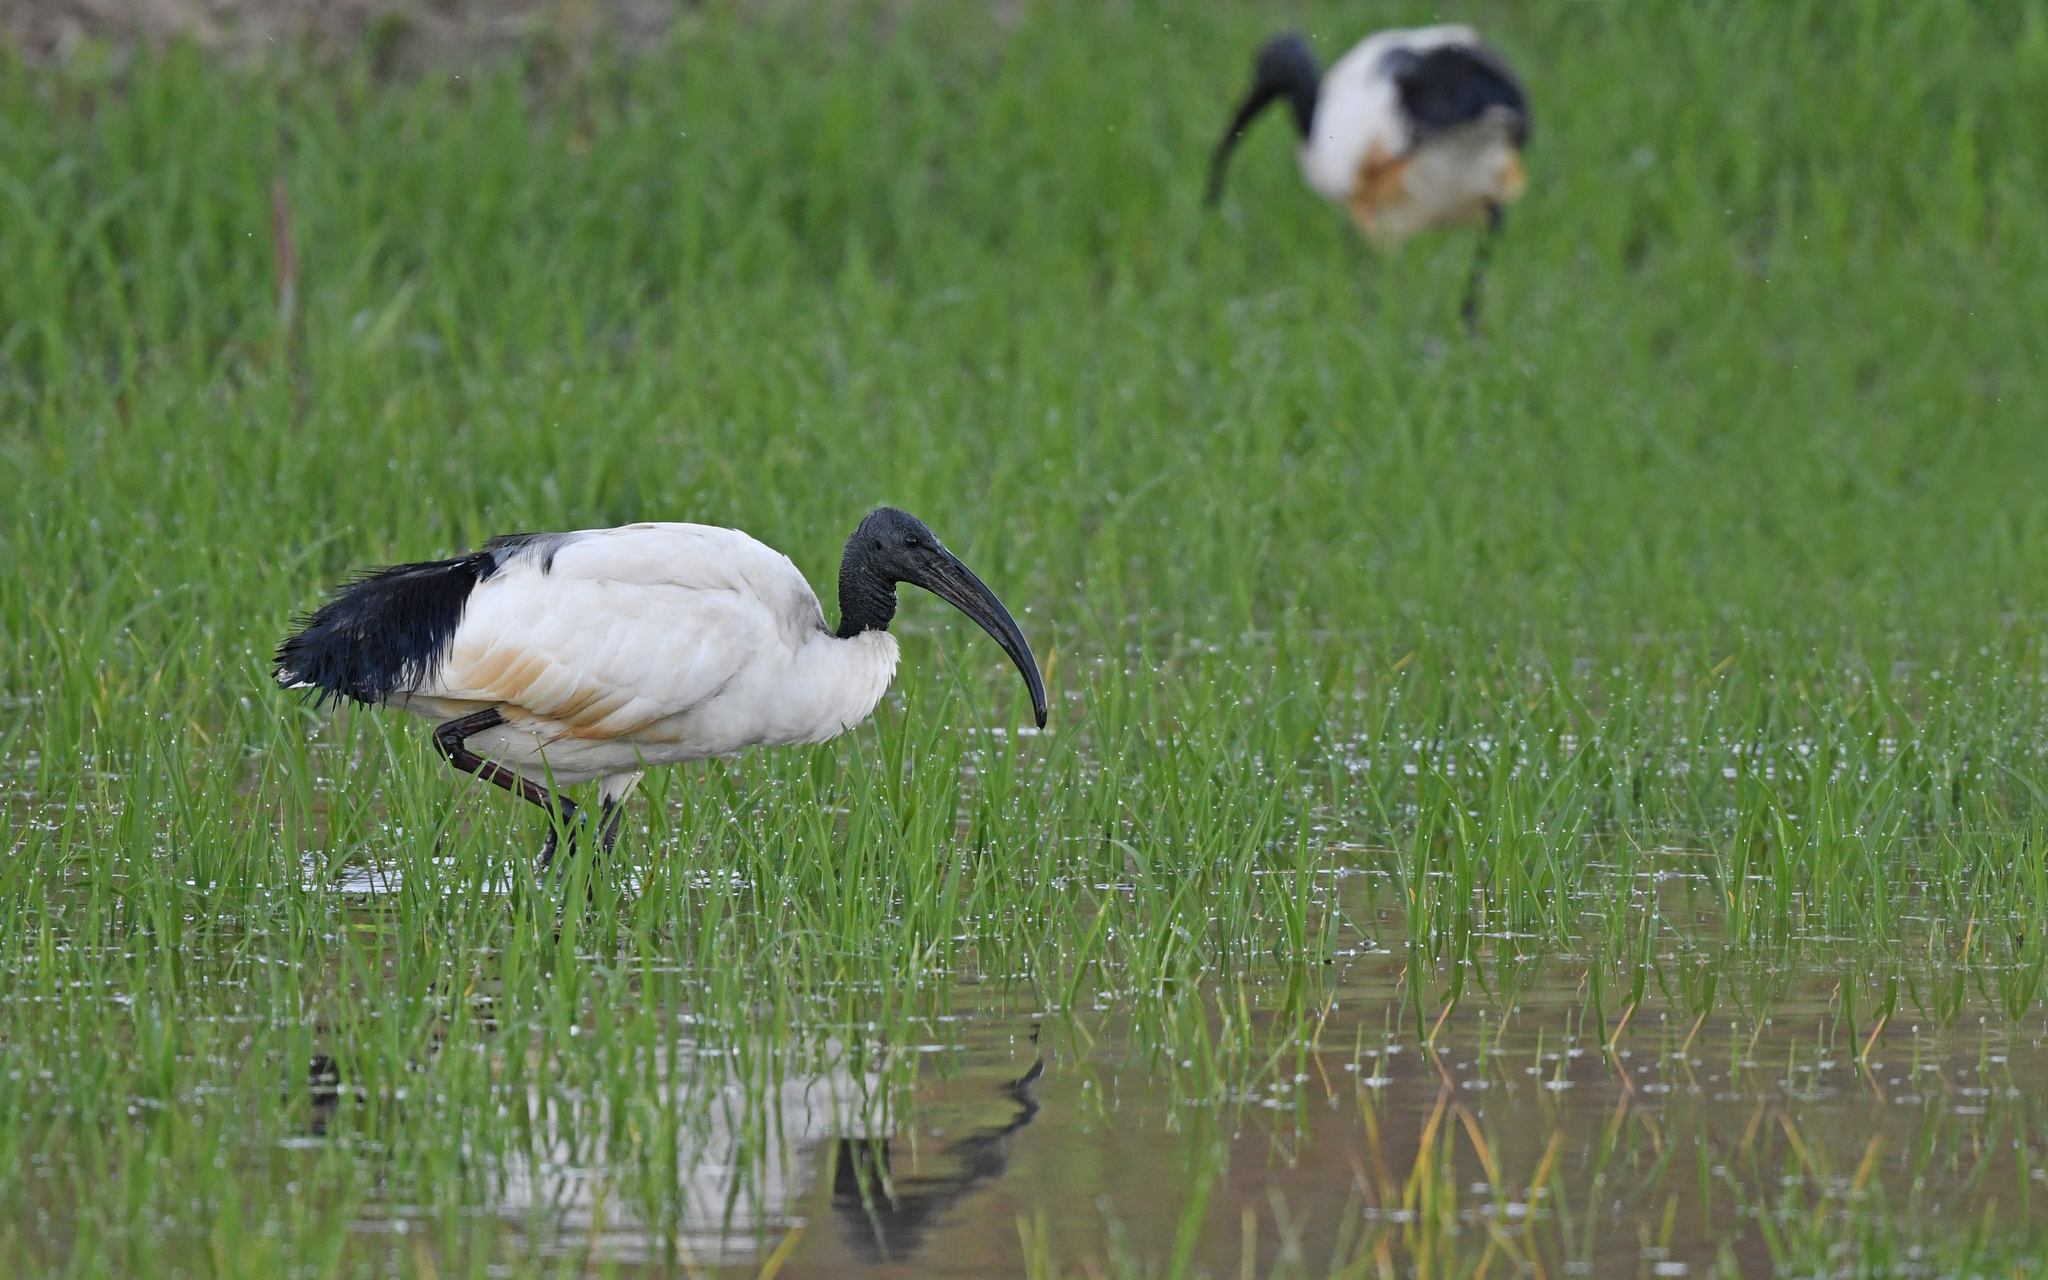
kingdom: Animalia
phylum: Chordata
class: Aves
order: Pelecaniformes
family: Threskiornithidae
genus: Threskiornis
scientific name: Threskiornis aethiopicus
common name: Sacred ibis
